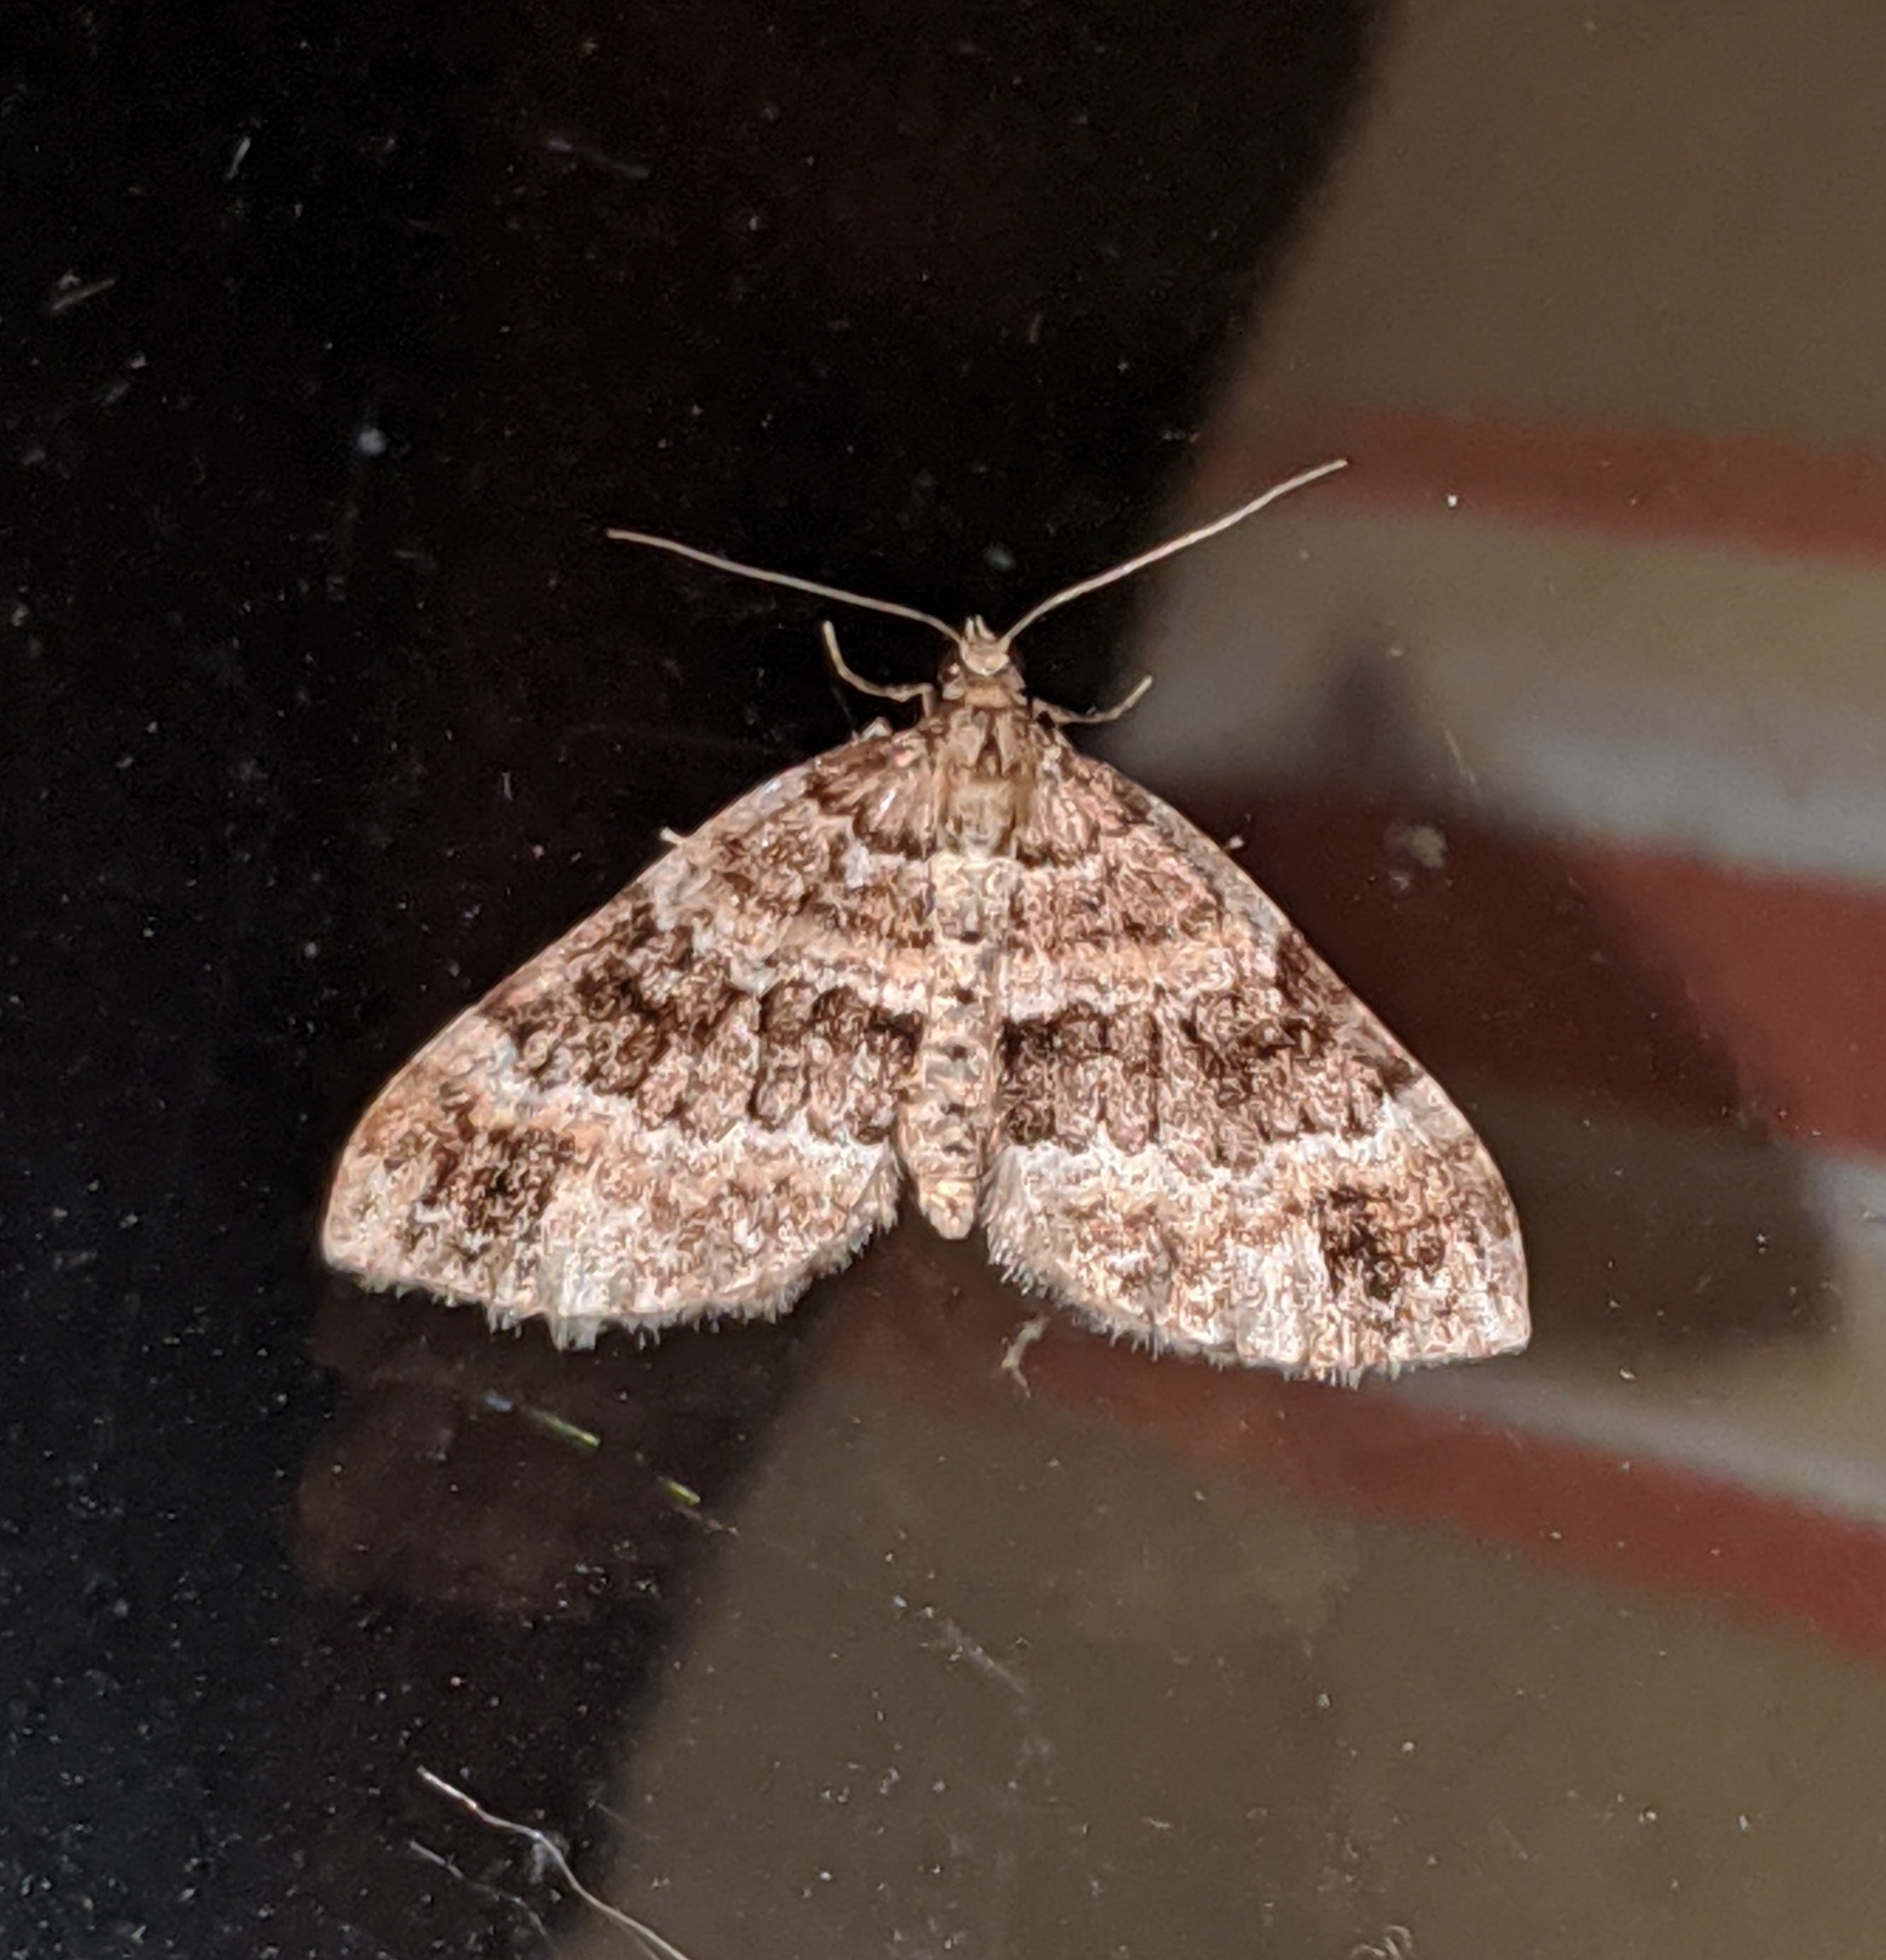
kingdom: Animalia
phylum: Arthropoda
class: Insecta
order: Lepidoptera
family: Geometridae
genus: Martania
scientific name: Martania
